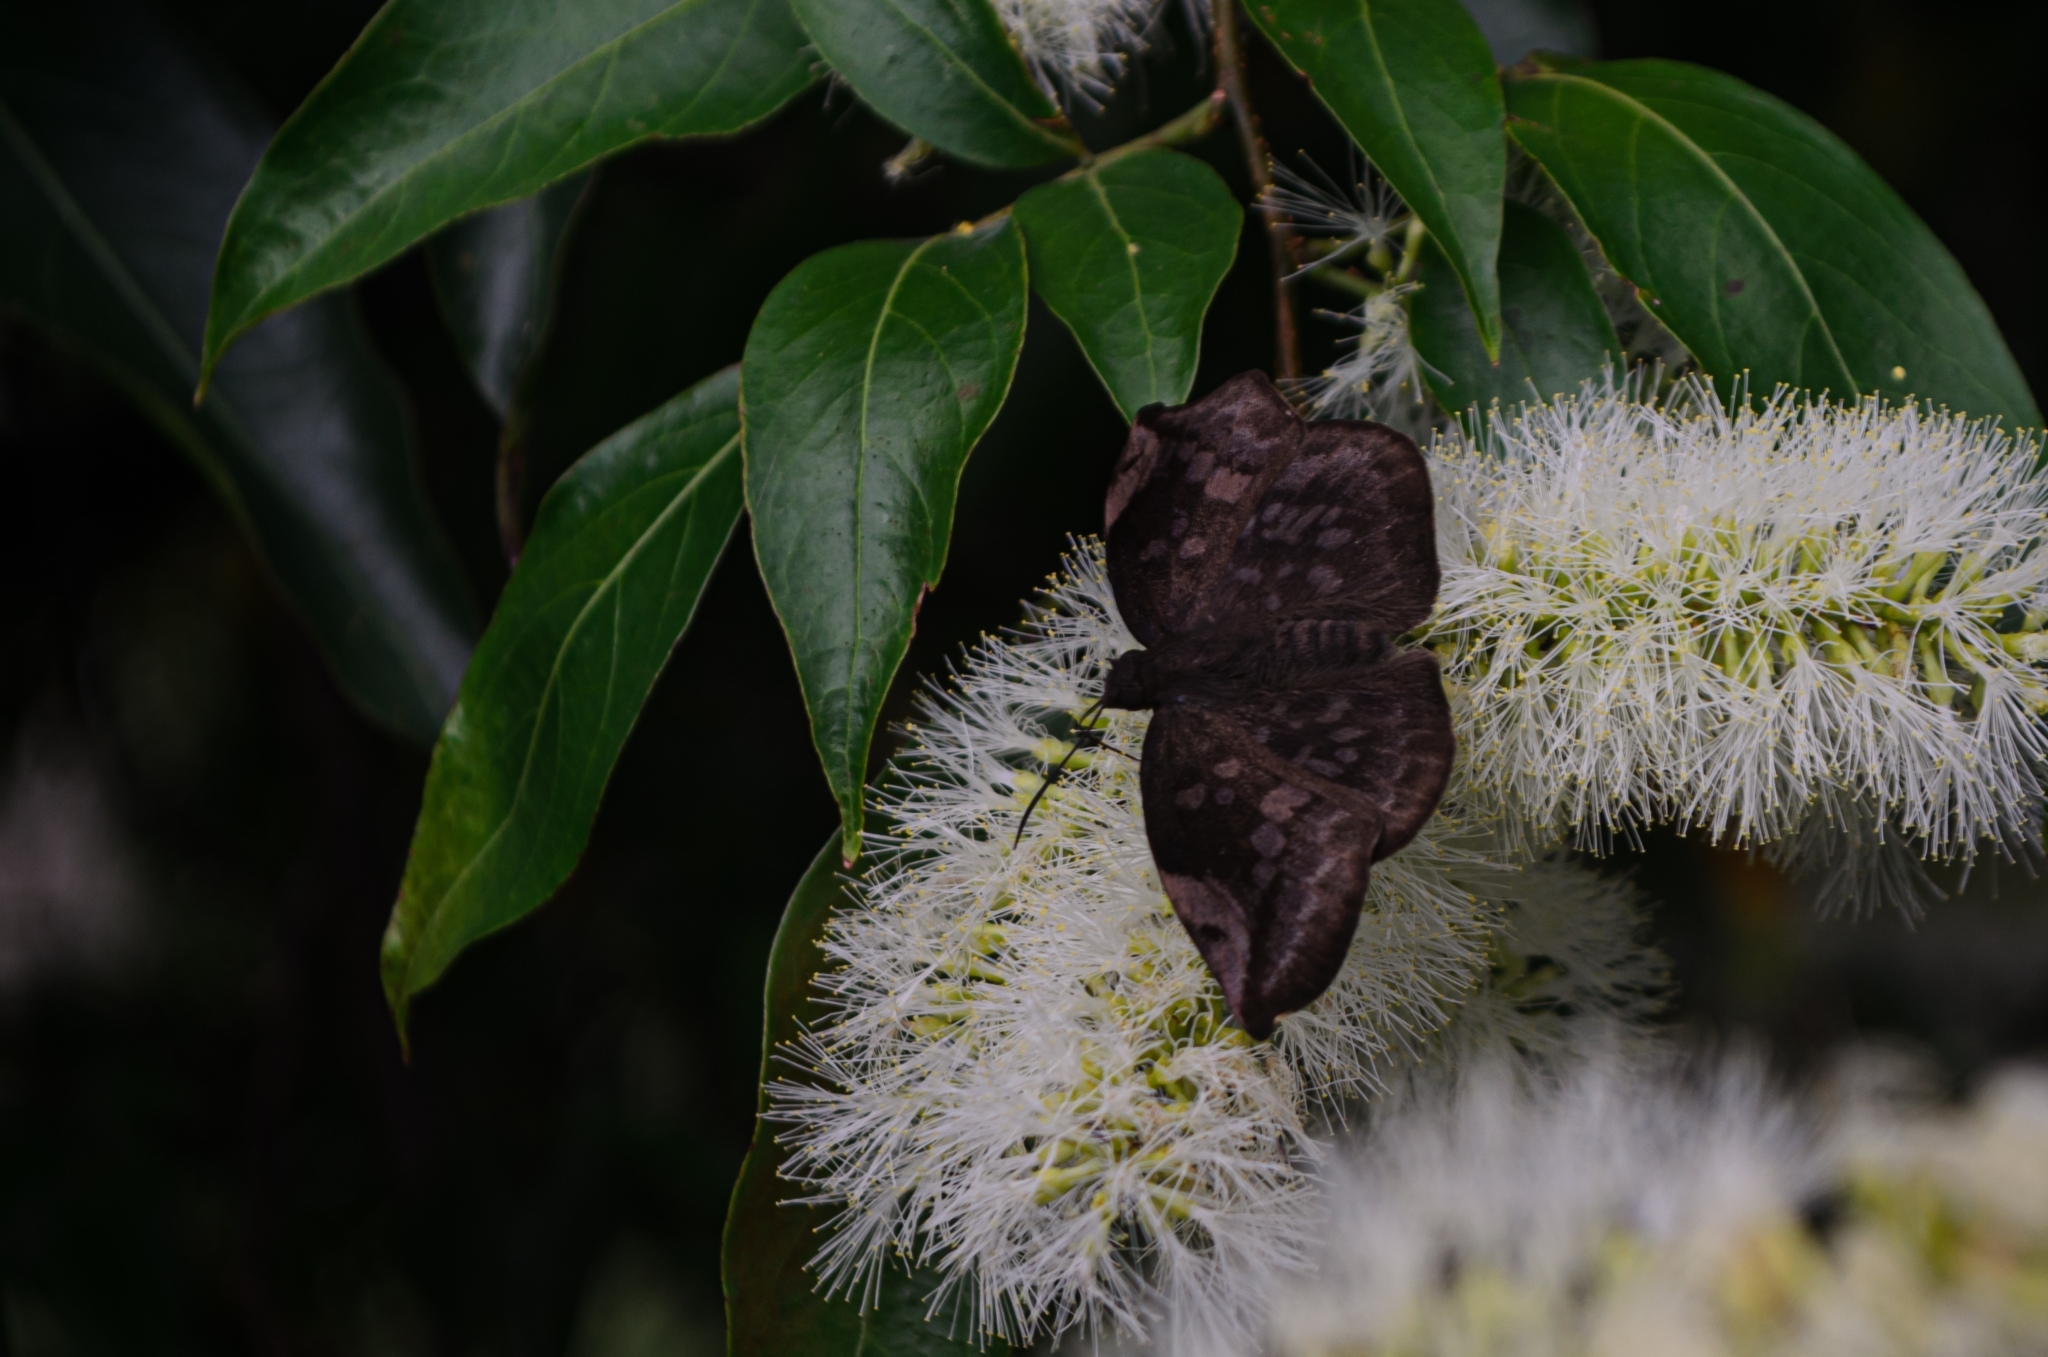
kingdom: Animalia
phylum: Arthropoda
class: Insecta
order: Lepidoptera
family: Hesperiidae
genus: Achlyodes
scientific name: Achlyodes thraso
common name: Sickle-winged skipper
